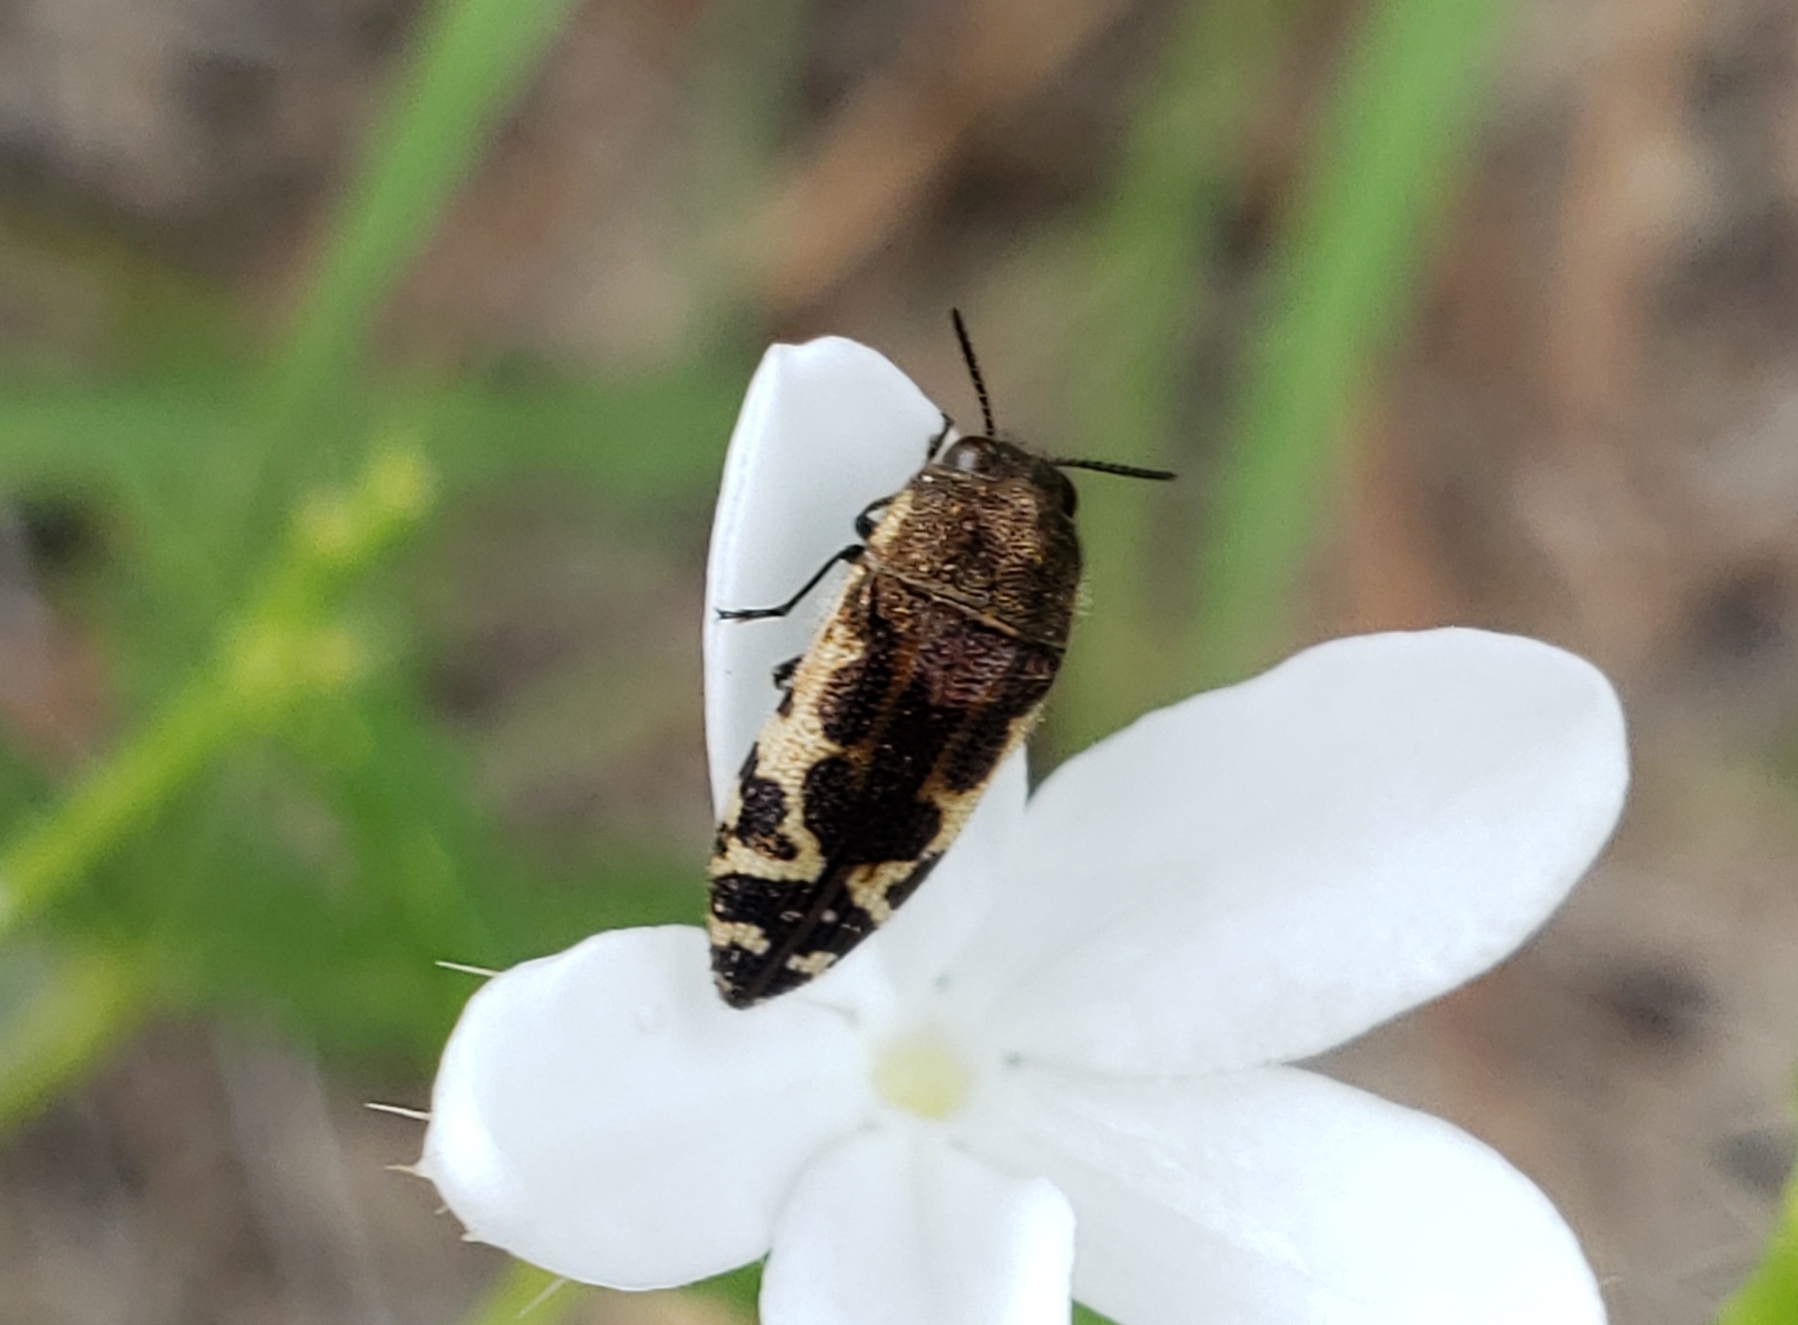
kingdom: Animalia
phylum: Arthropoda
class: Insecta
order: Coleoptera
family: Buprestidae
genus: Acmaeodera
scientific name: Acmaeodera pulchella
